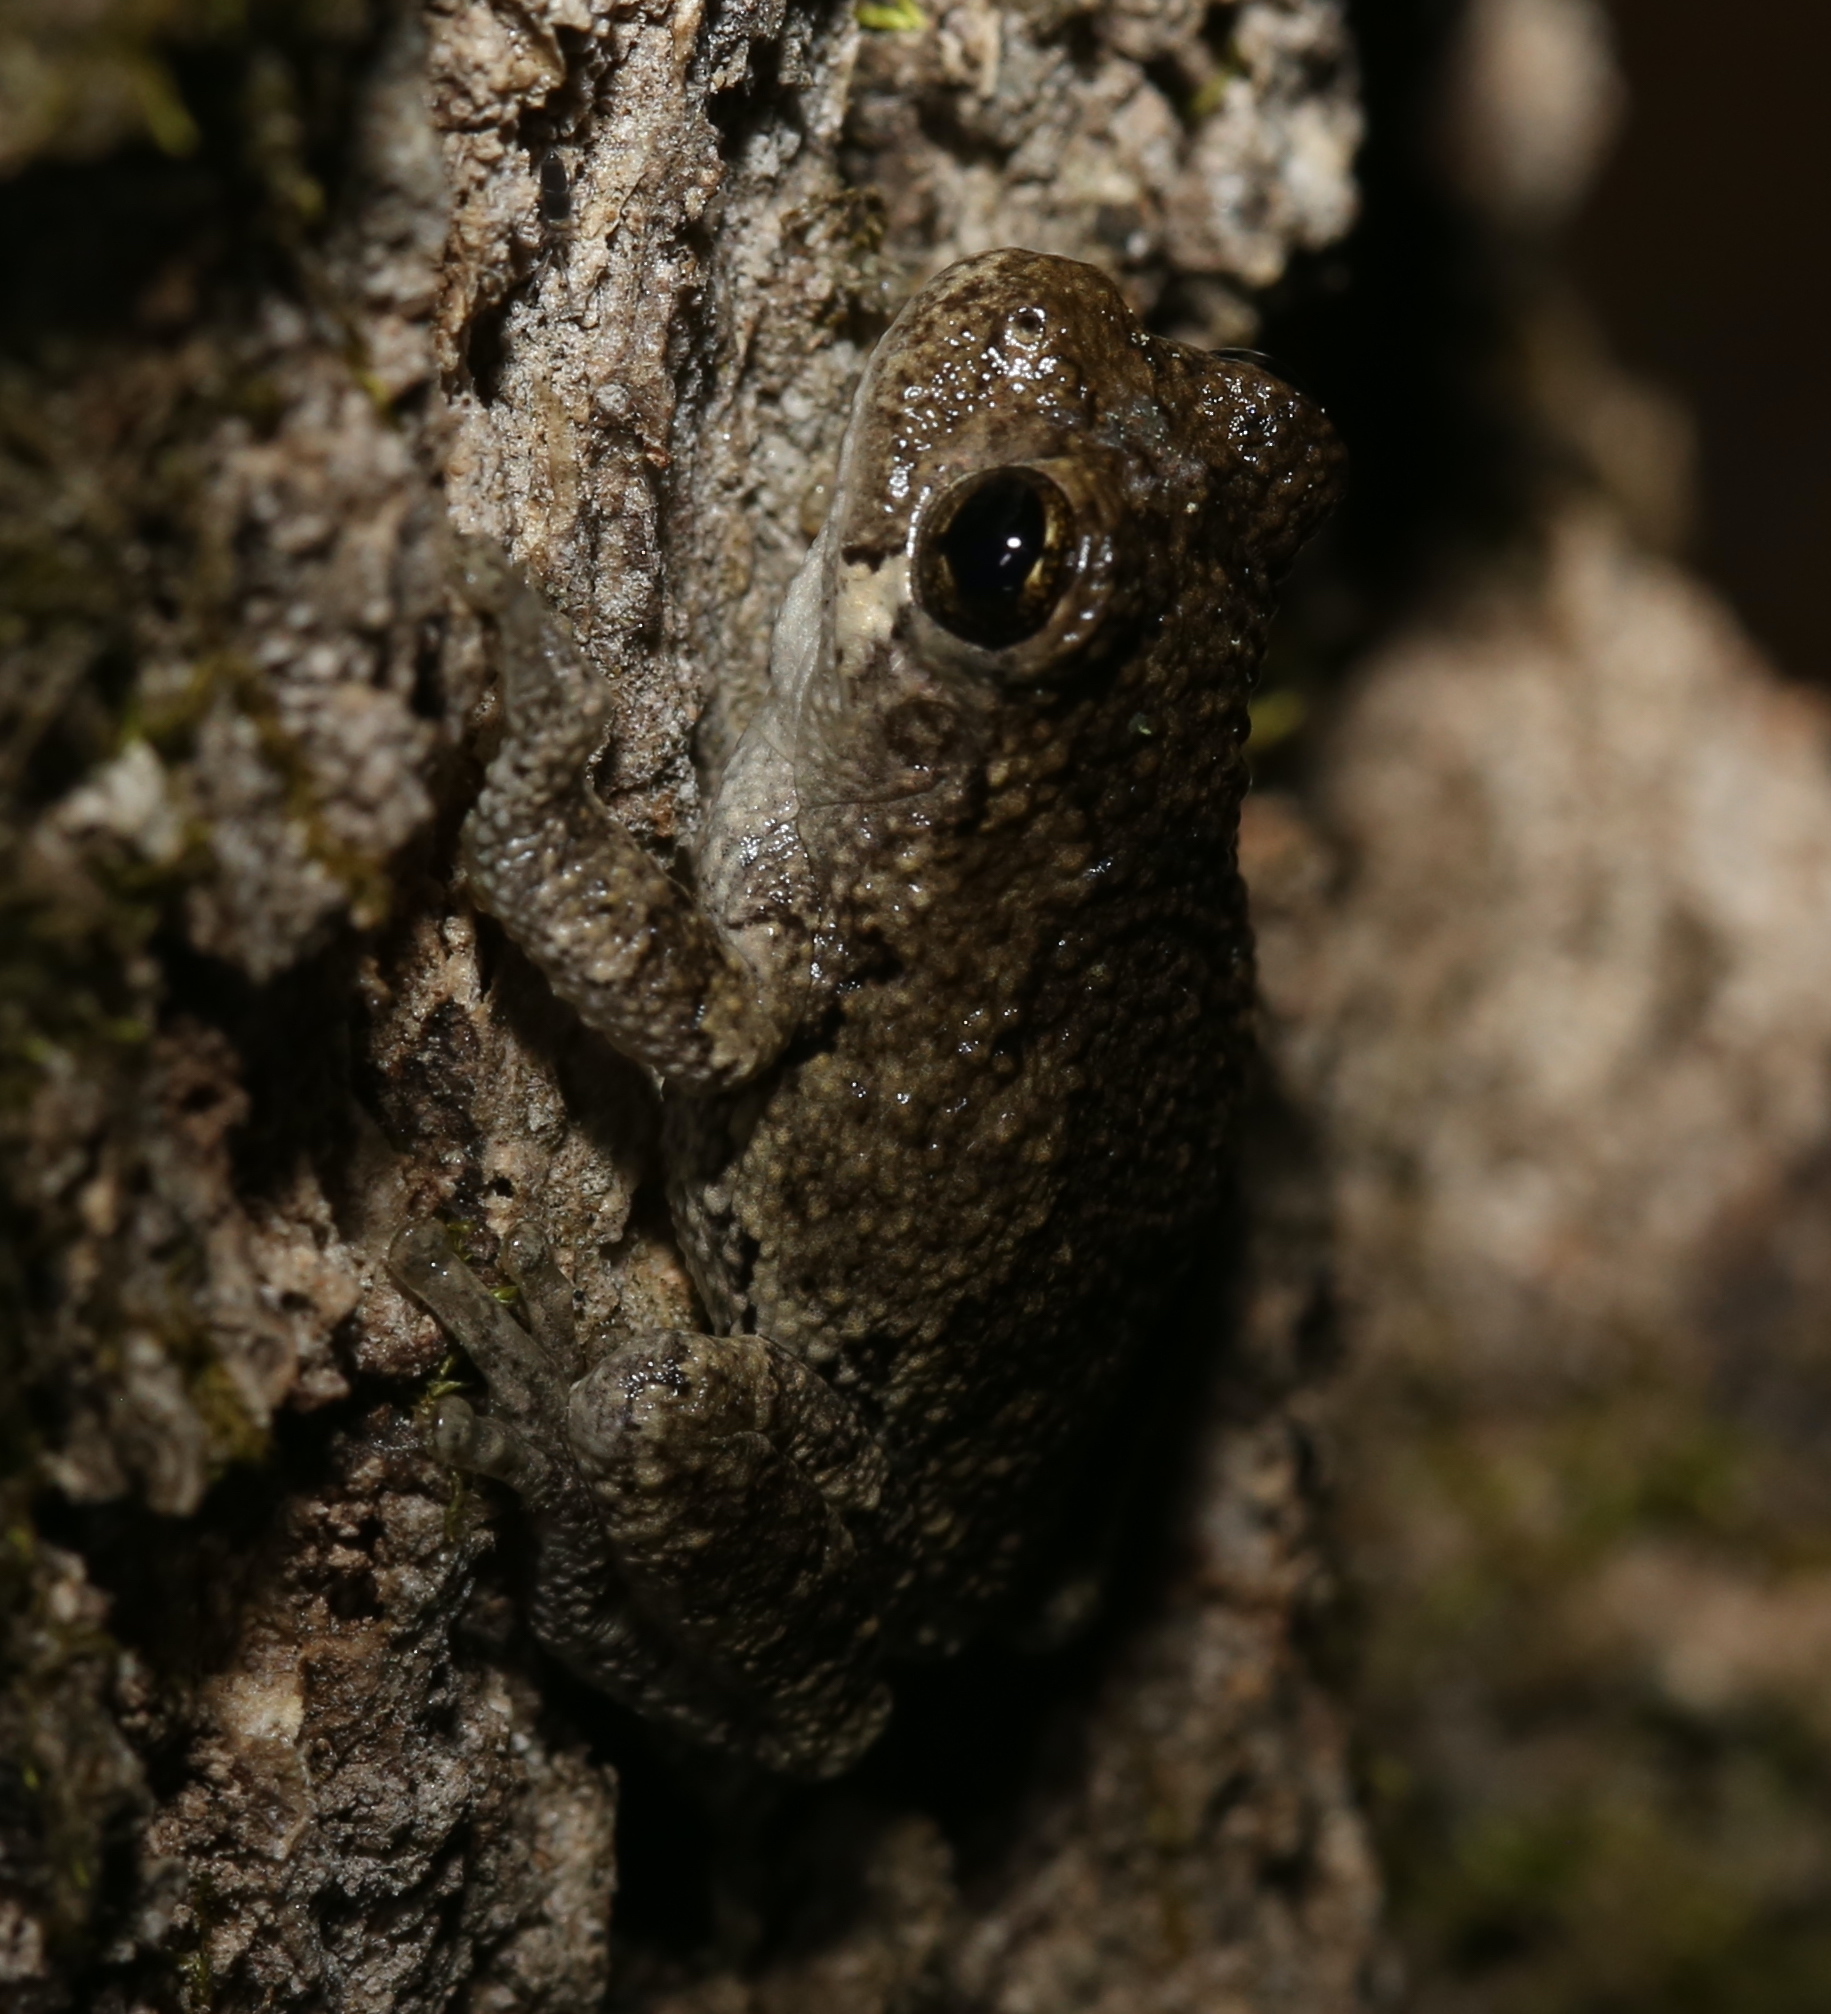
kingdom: Animalia
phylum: Chordata
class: Amphibia
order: Anura
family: Hylidae
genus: Dryophytes
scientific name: Dryophytes chrysoscelis
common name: Cope's gray treefrog
